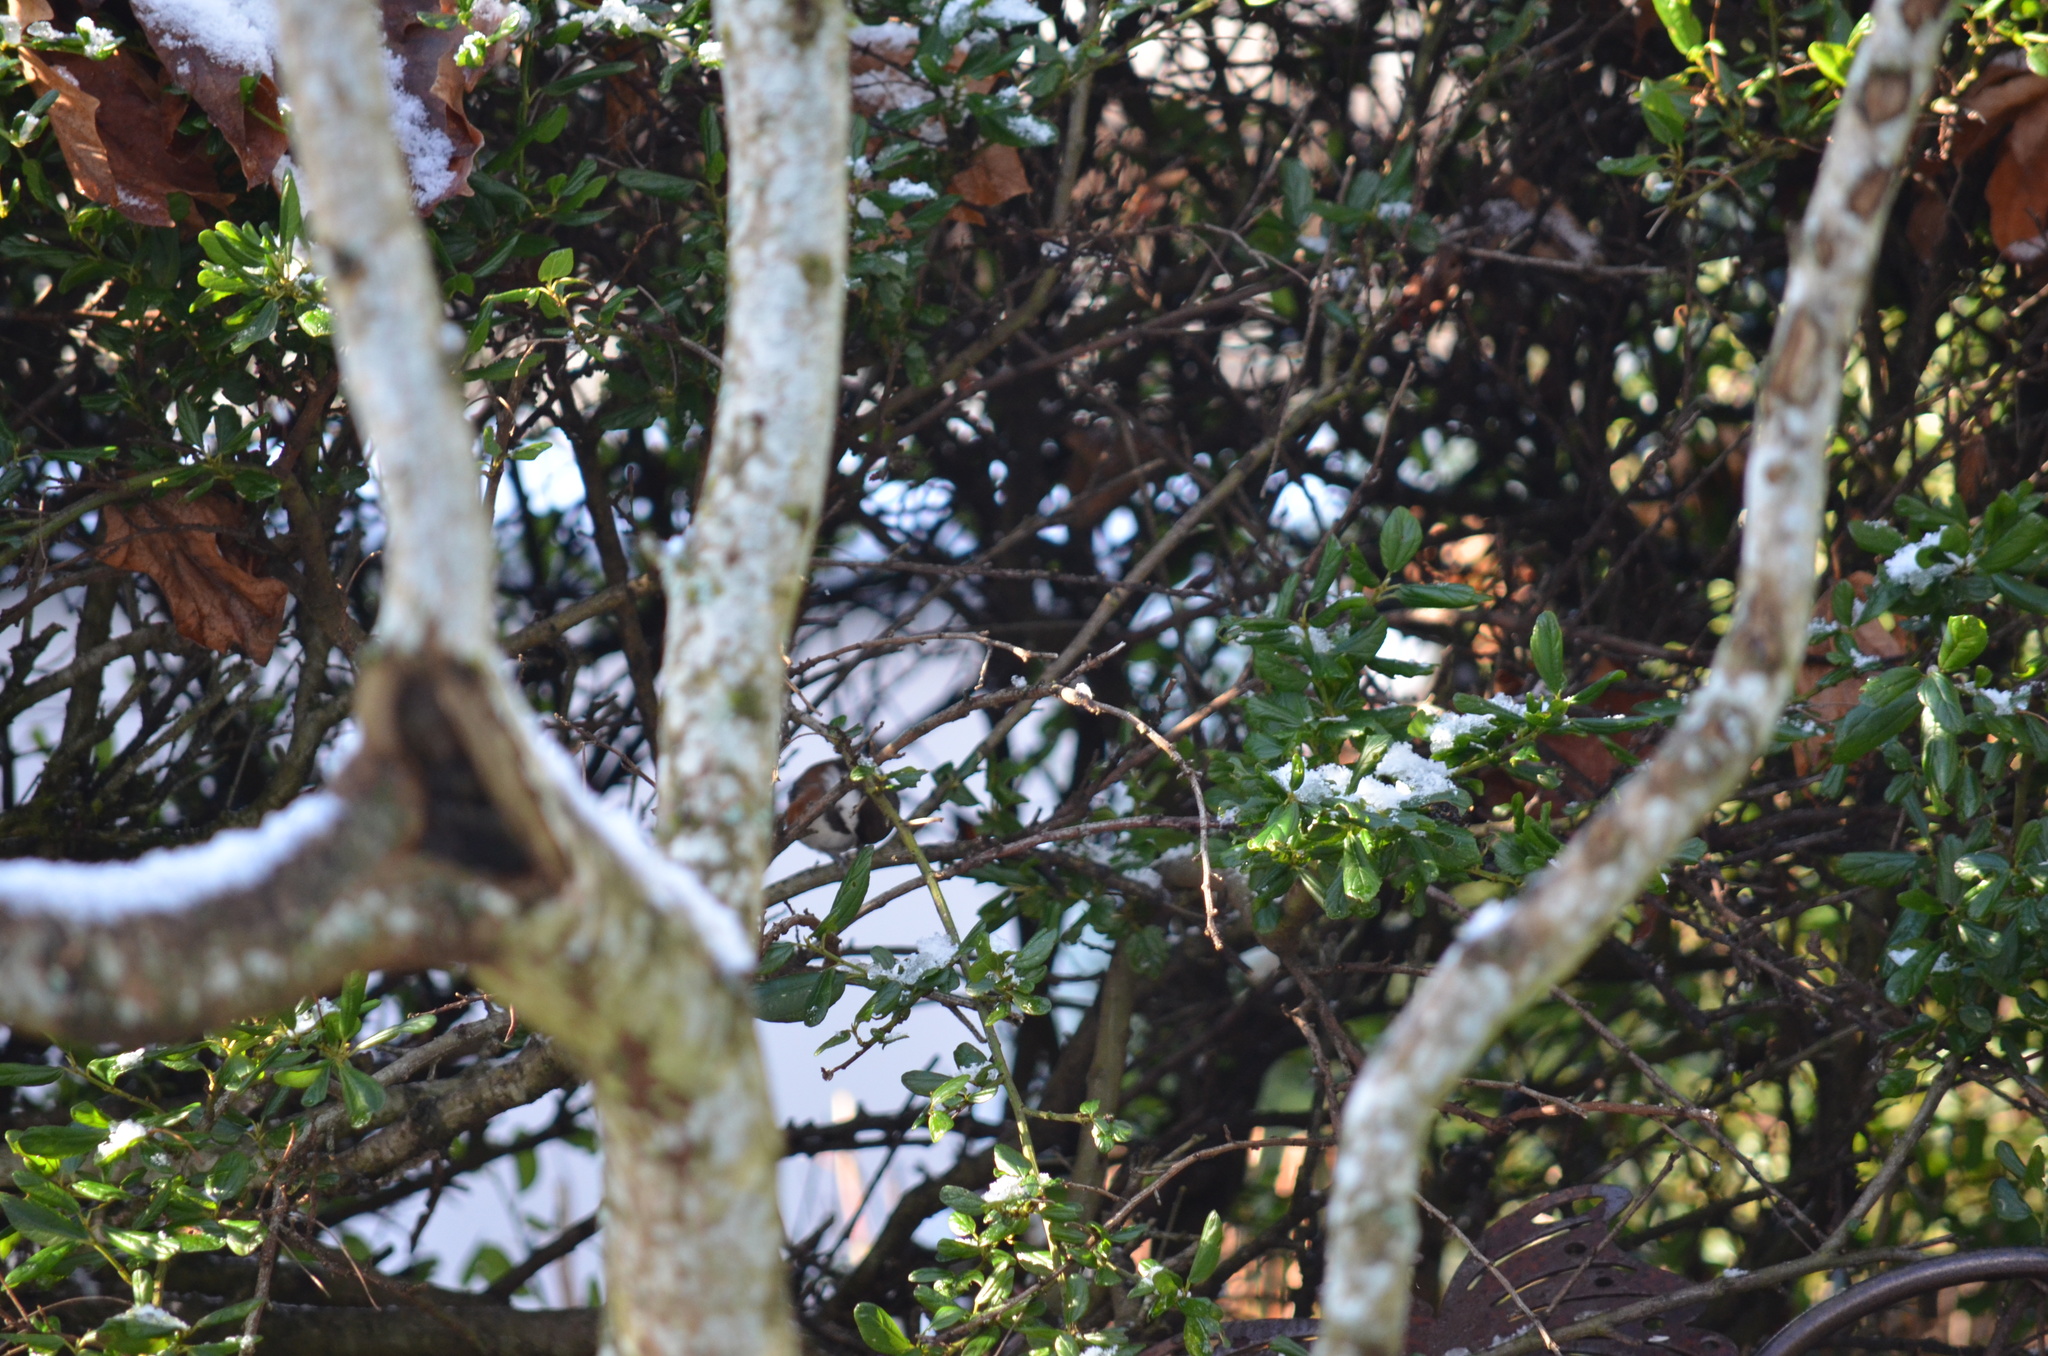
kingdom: Animalia
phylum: Chordata
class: Aves
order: Passeriformes
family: Paridae
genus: Poecile
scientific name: Poecile rufescens
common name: Chestnut-backed chickadee
